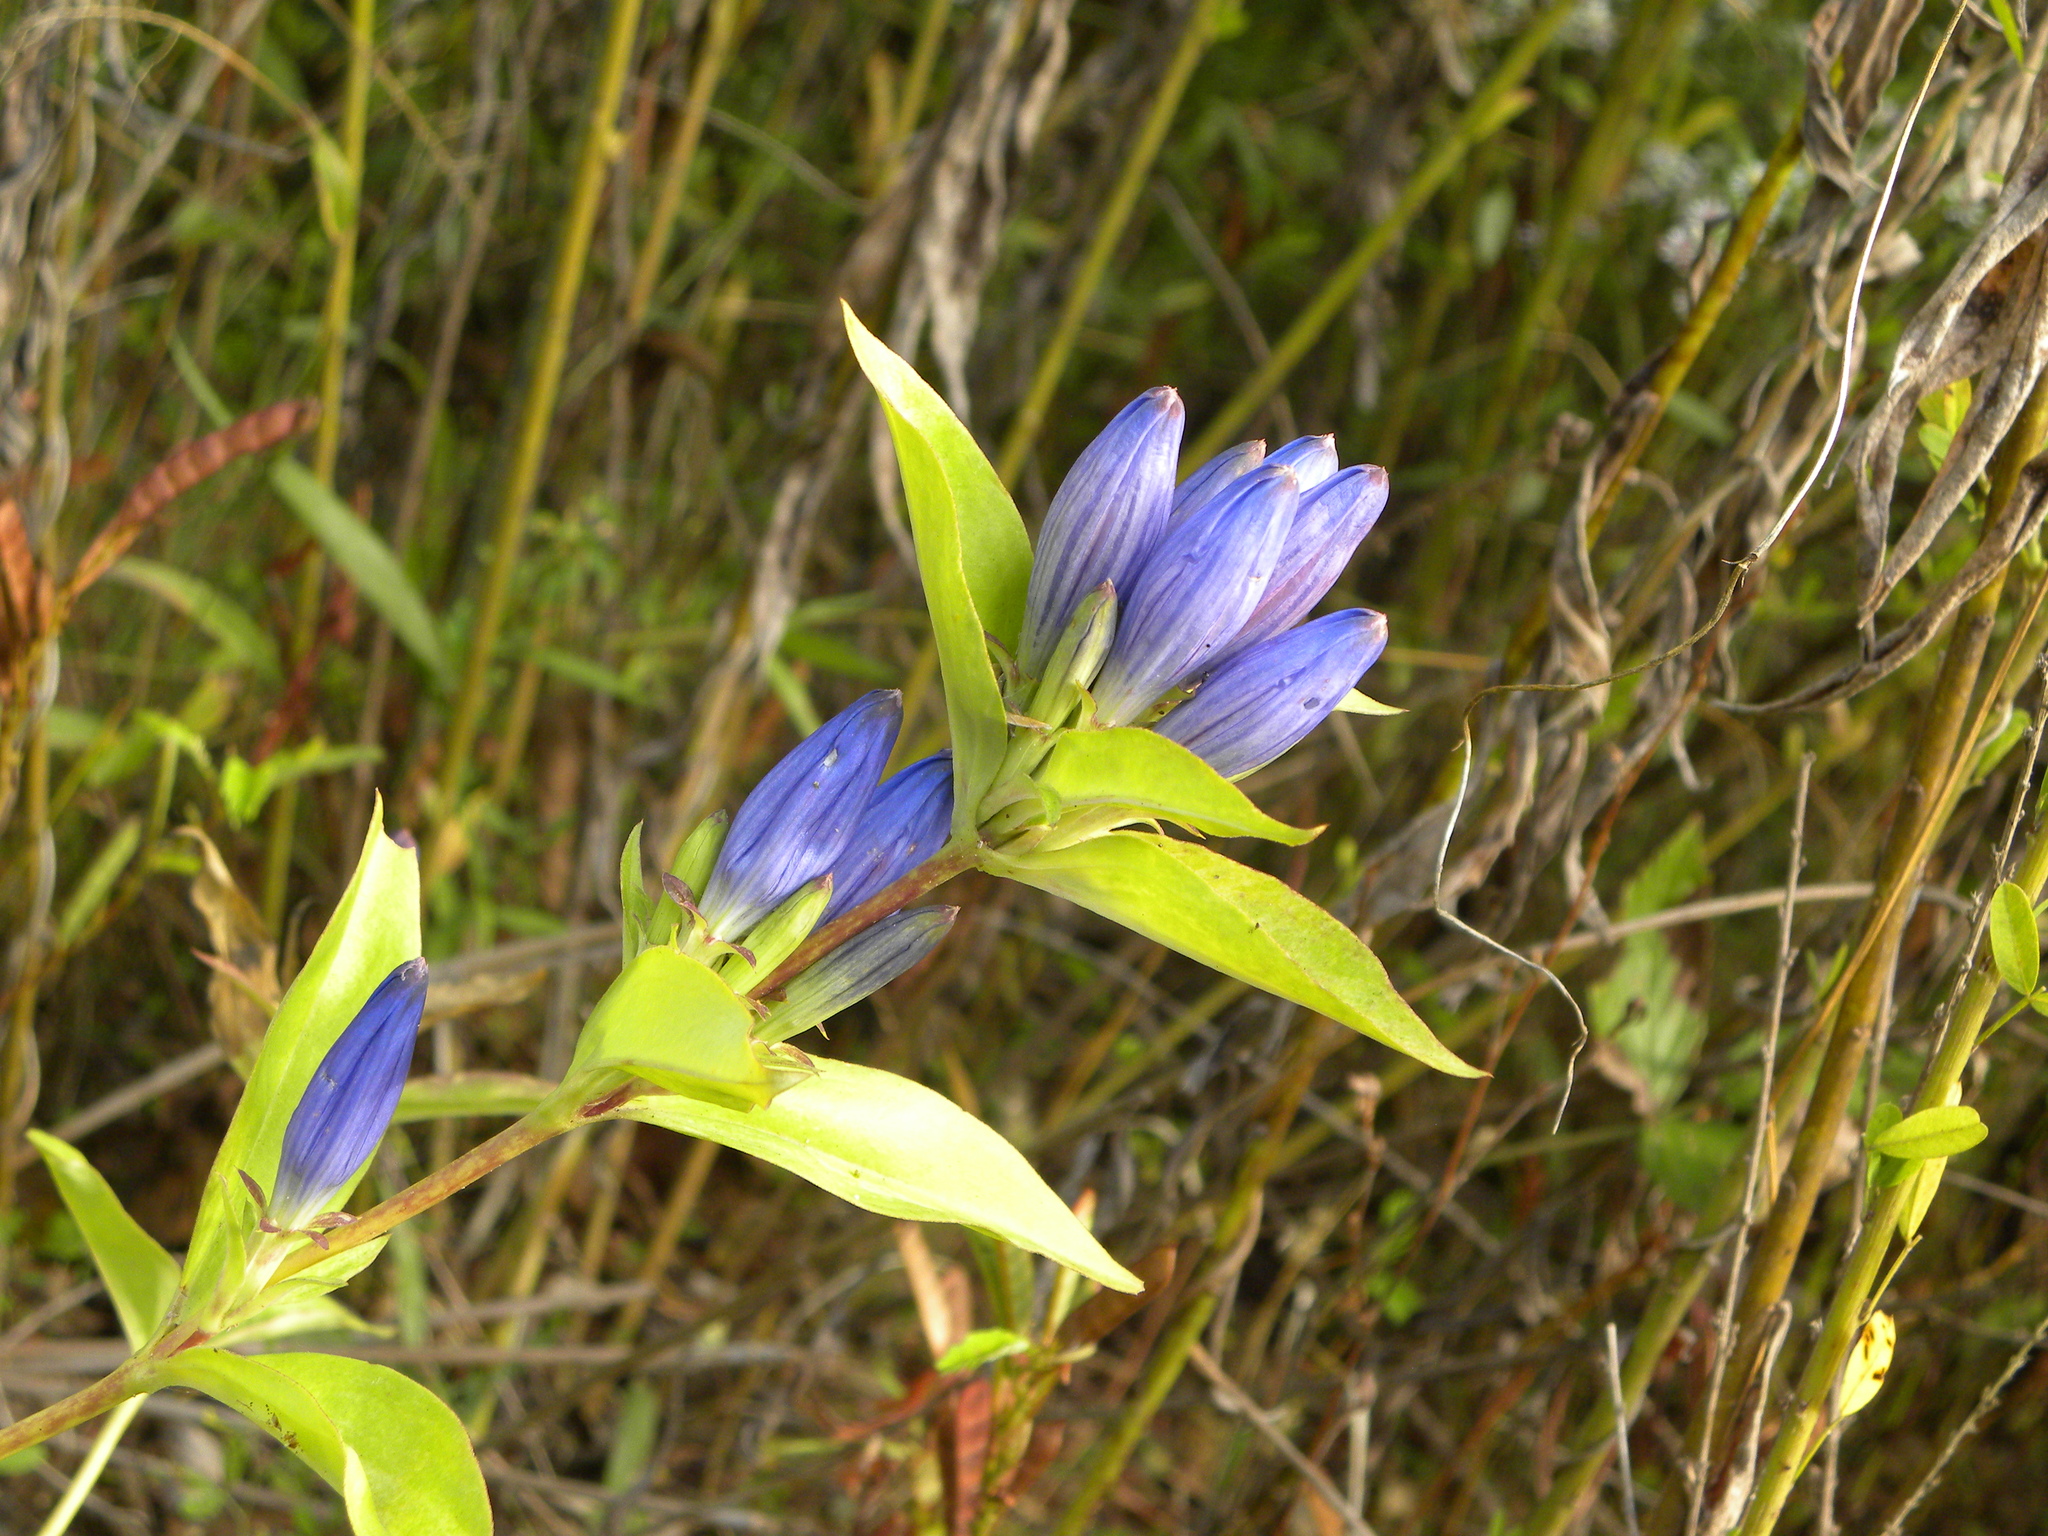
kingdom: Plantae
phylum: Tracheophyta
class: Magnoliopsida
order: Gentianales
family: Gentianaceae
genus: Gentiana
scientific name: Gentiana andrewsii
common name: Bottle gentian
